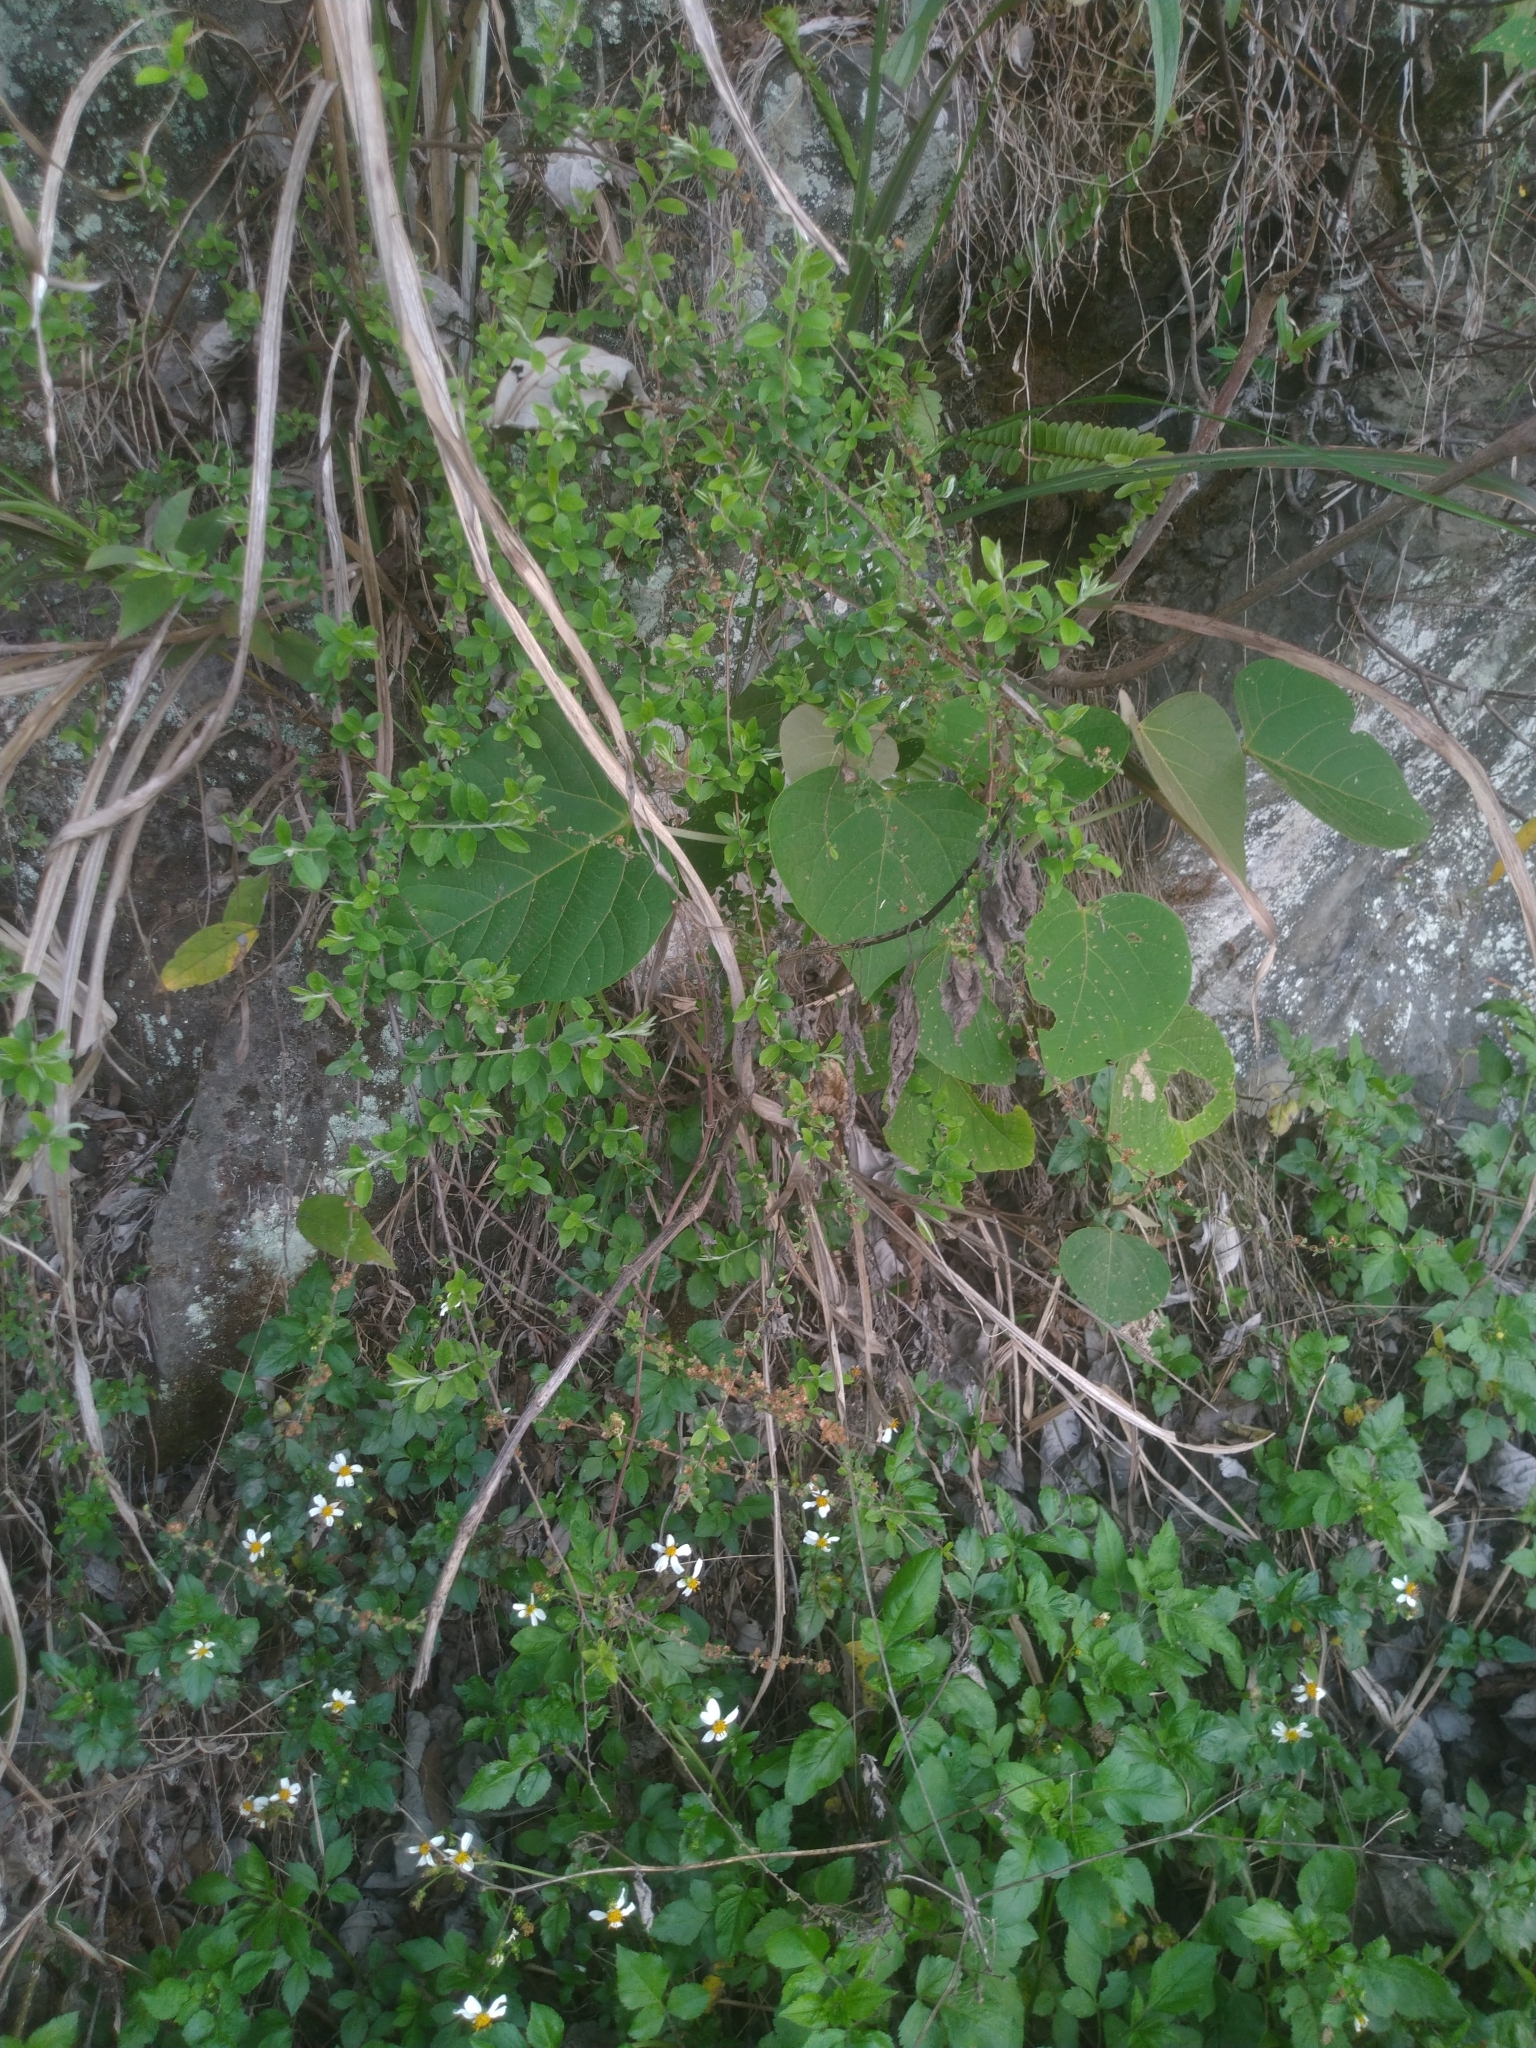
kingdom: Plantae
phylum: Tracheophyta
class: Magnoliopsida
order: Rosales
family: Rosaceae
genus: Spiraea
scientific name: Spiraea prunifolia
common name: Bridal-wreath spiraea
